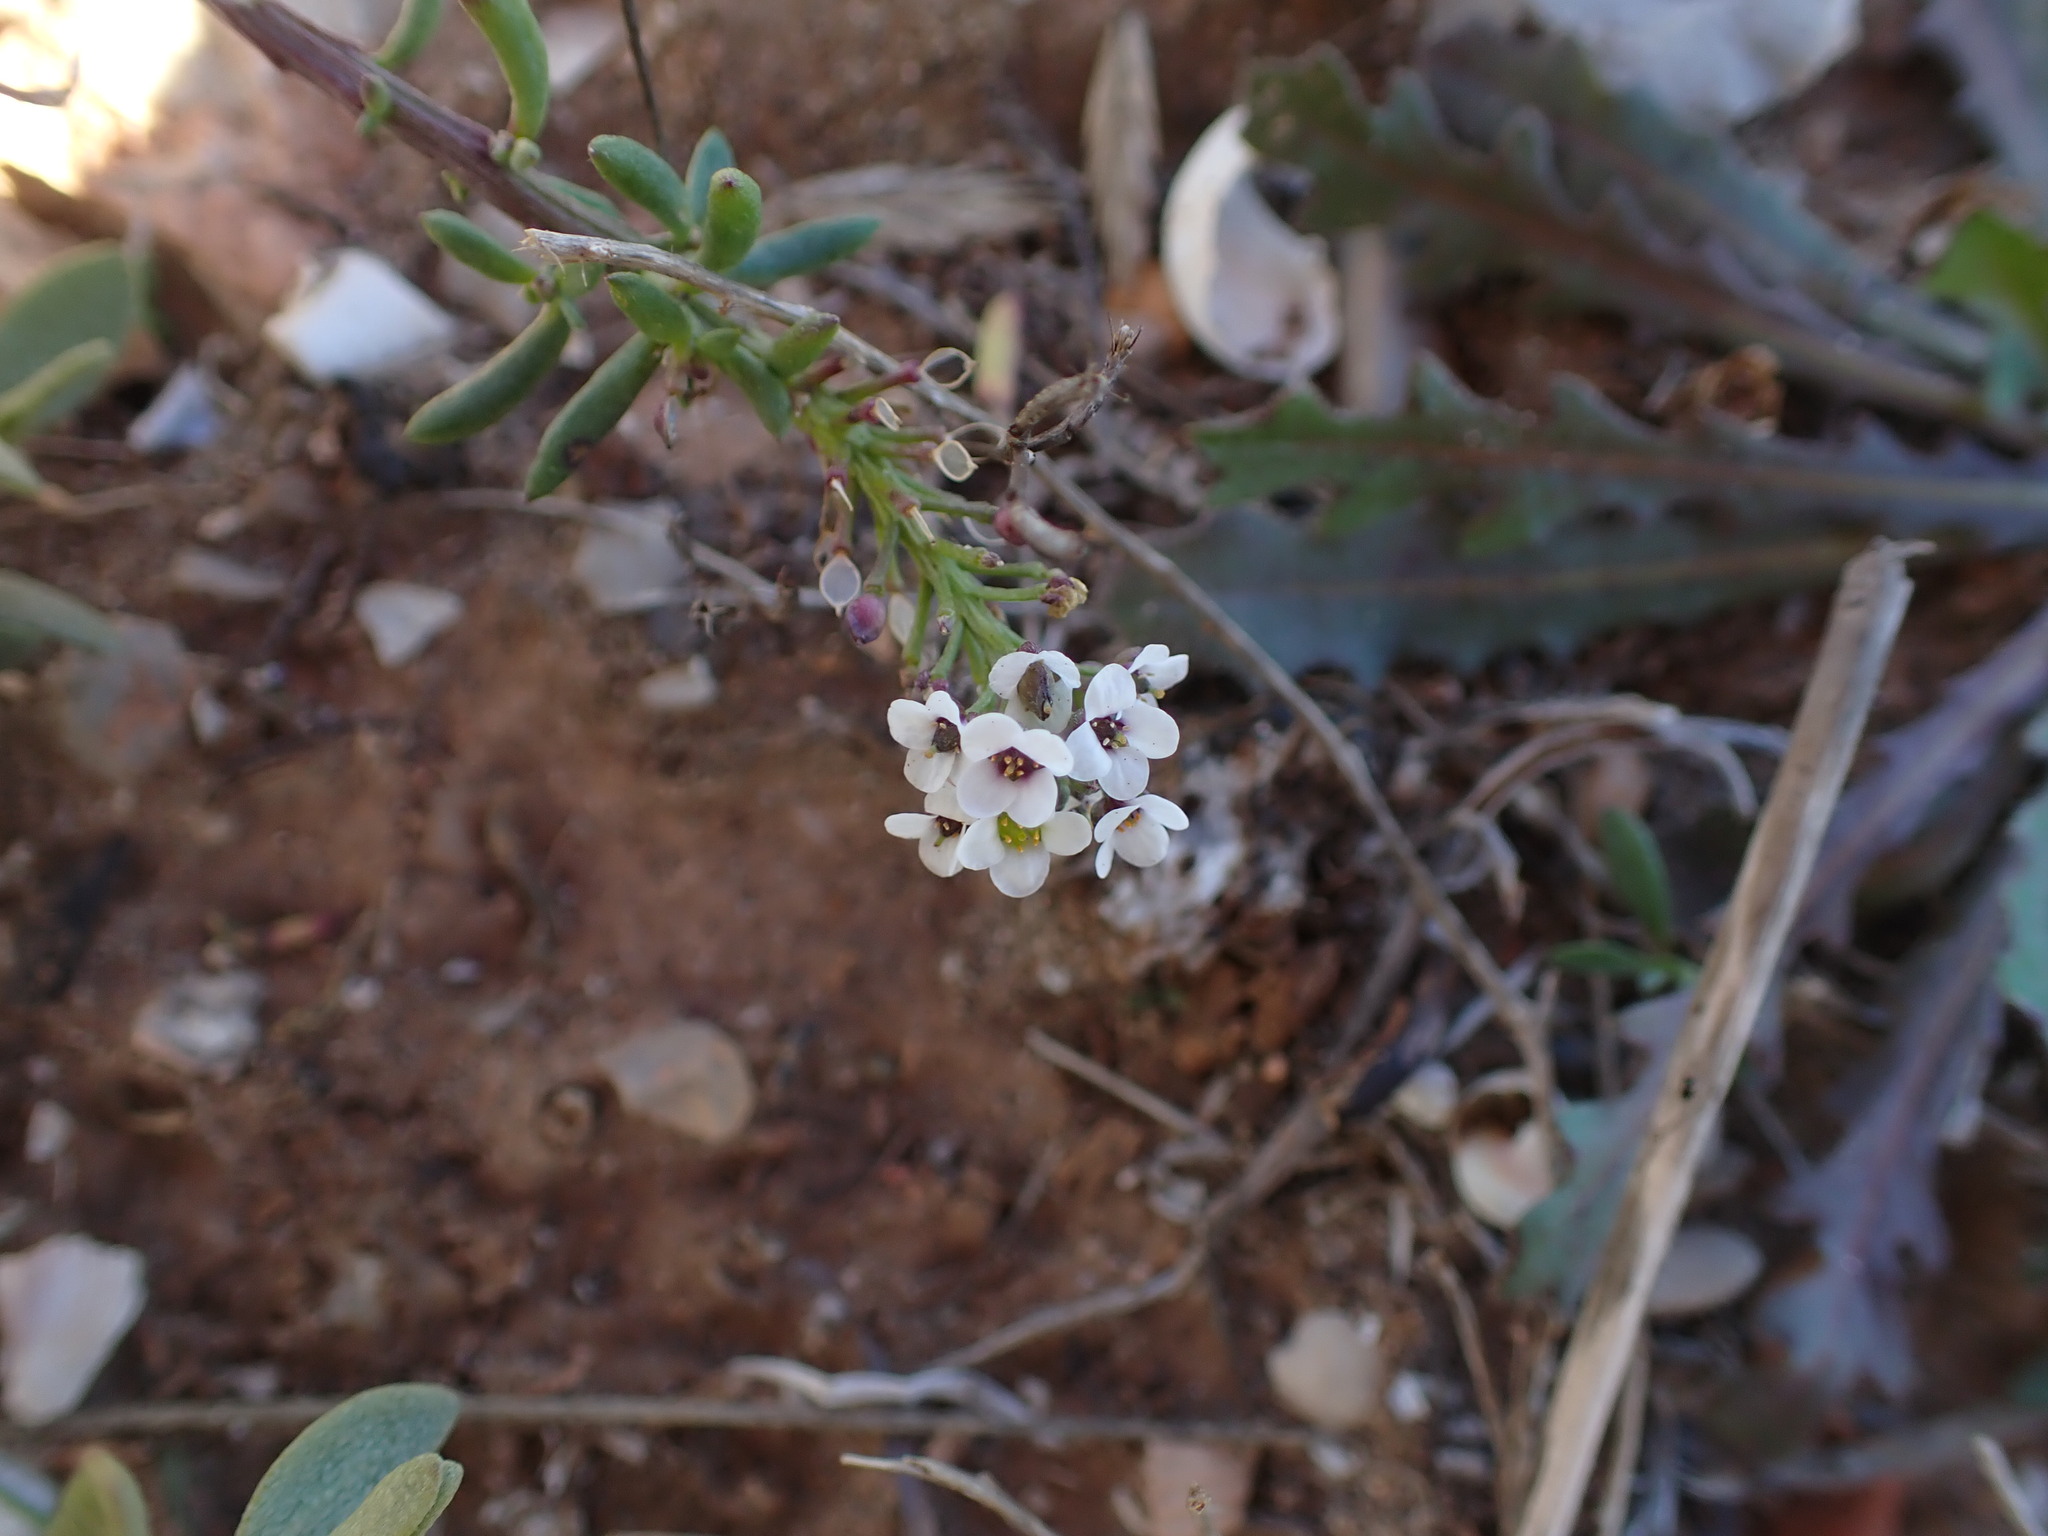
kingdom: Plantae
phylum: Tracheophyta
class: Magnoliopsida
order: Brassicales
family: Brassicaceae
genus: Lobularia
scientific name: Lobularia maritima
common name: Sweet alison
